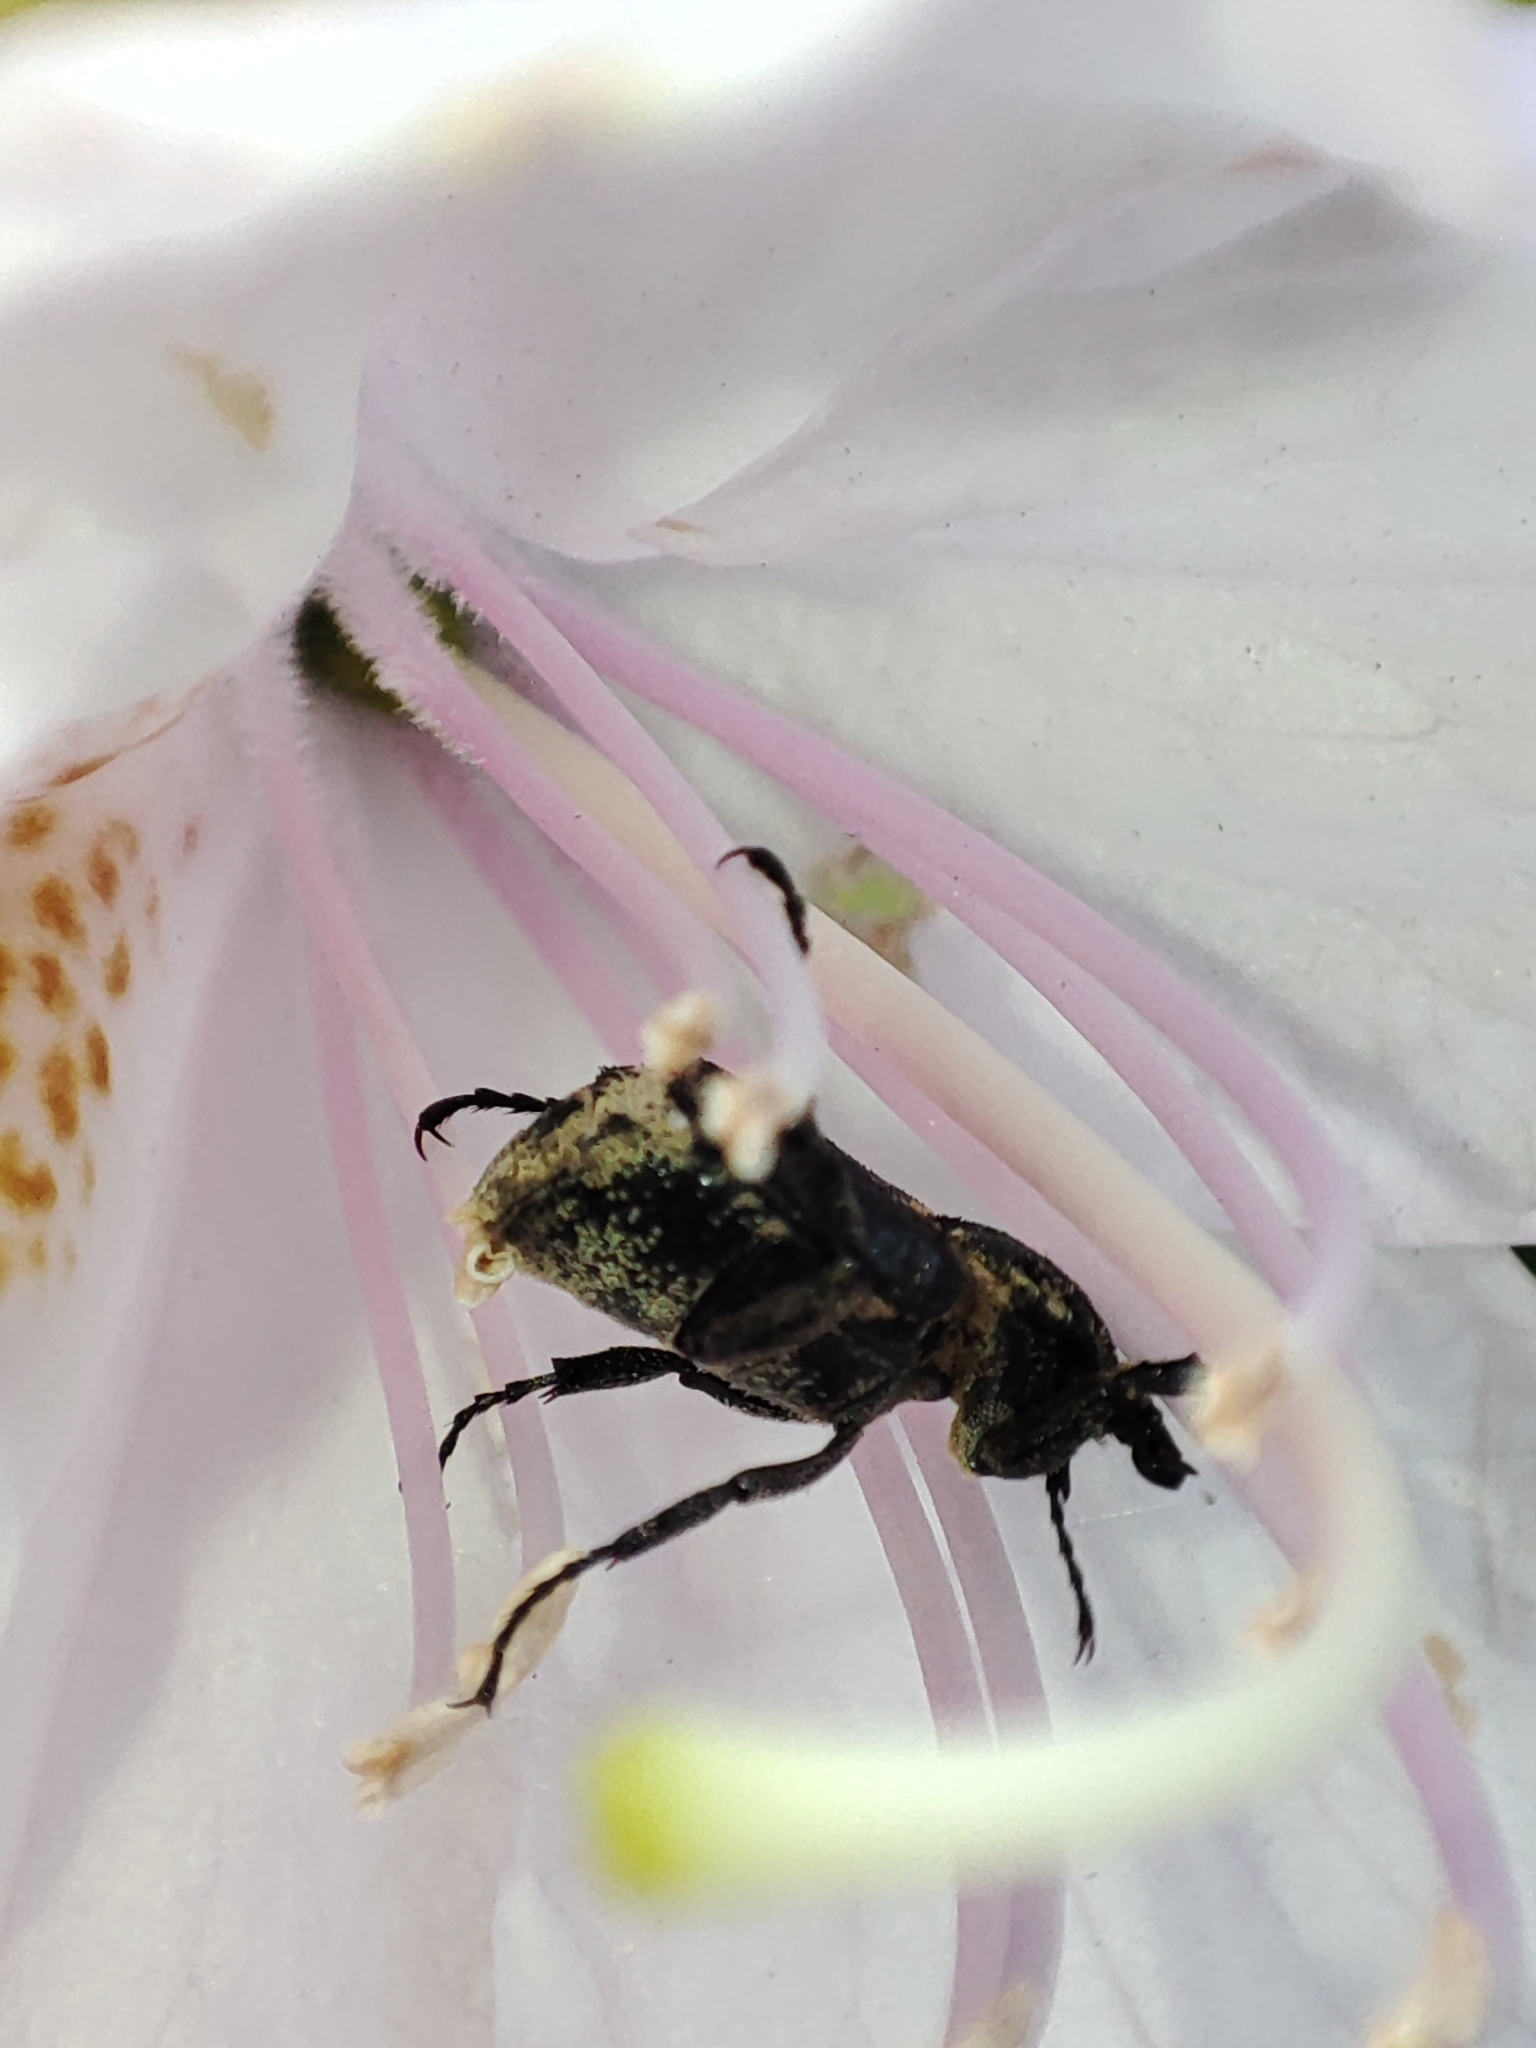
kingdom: Animalia
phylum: Arthropoda
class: Insecta
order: Coleoptera
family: Scarabaeidae
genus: Valgus
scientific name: Valgus hemipterus
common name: Bug flower chafer
